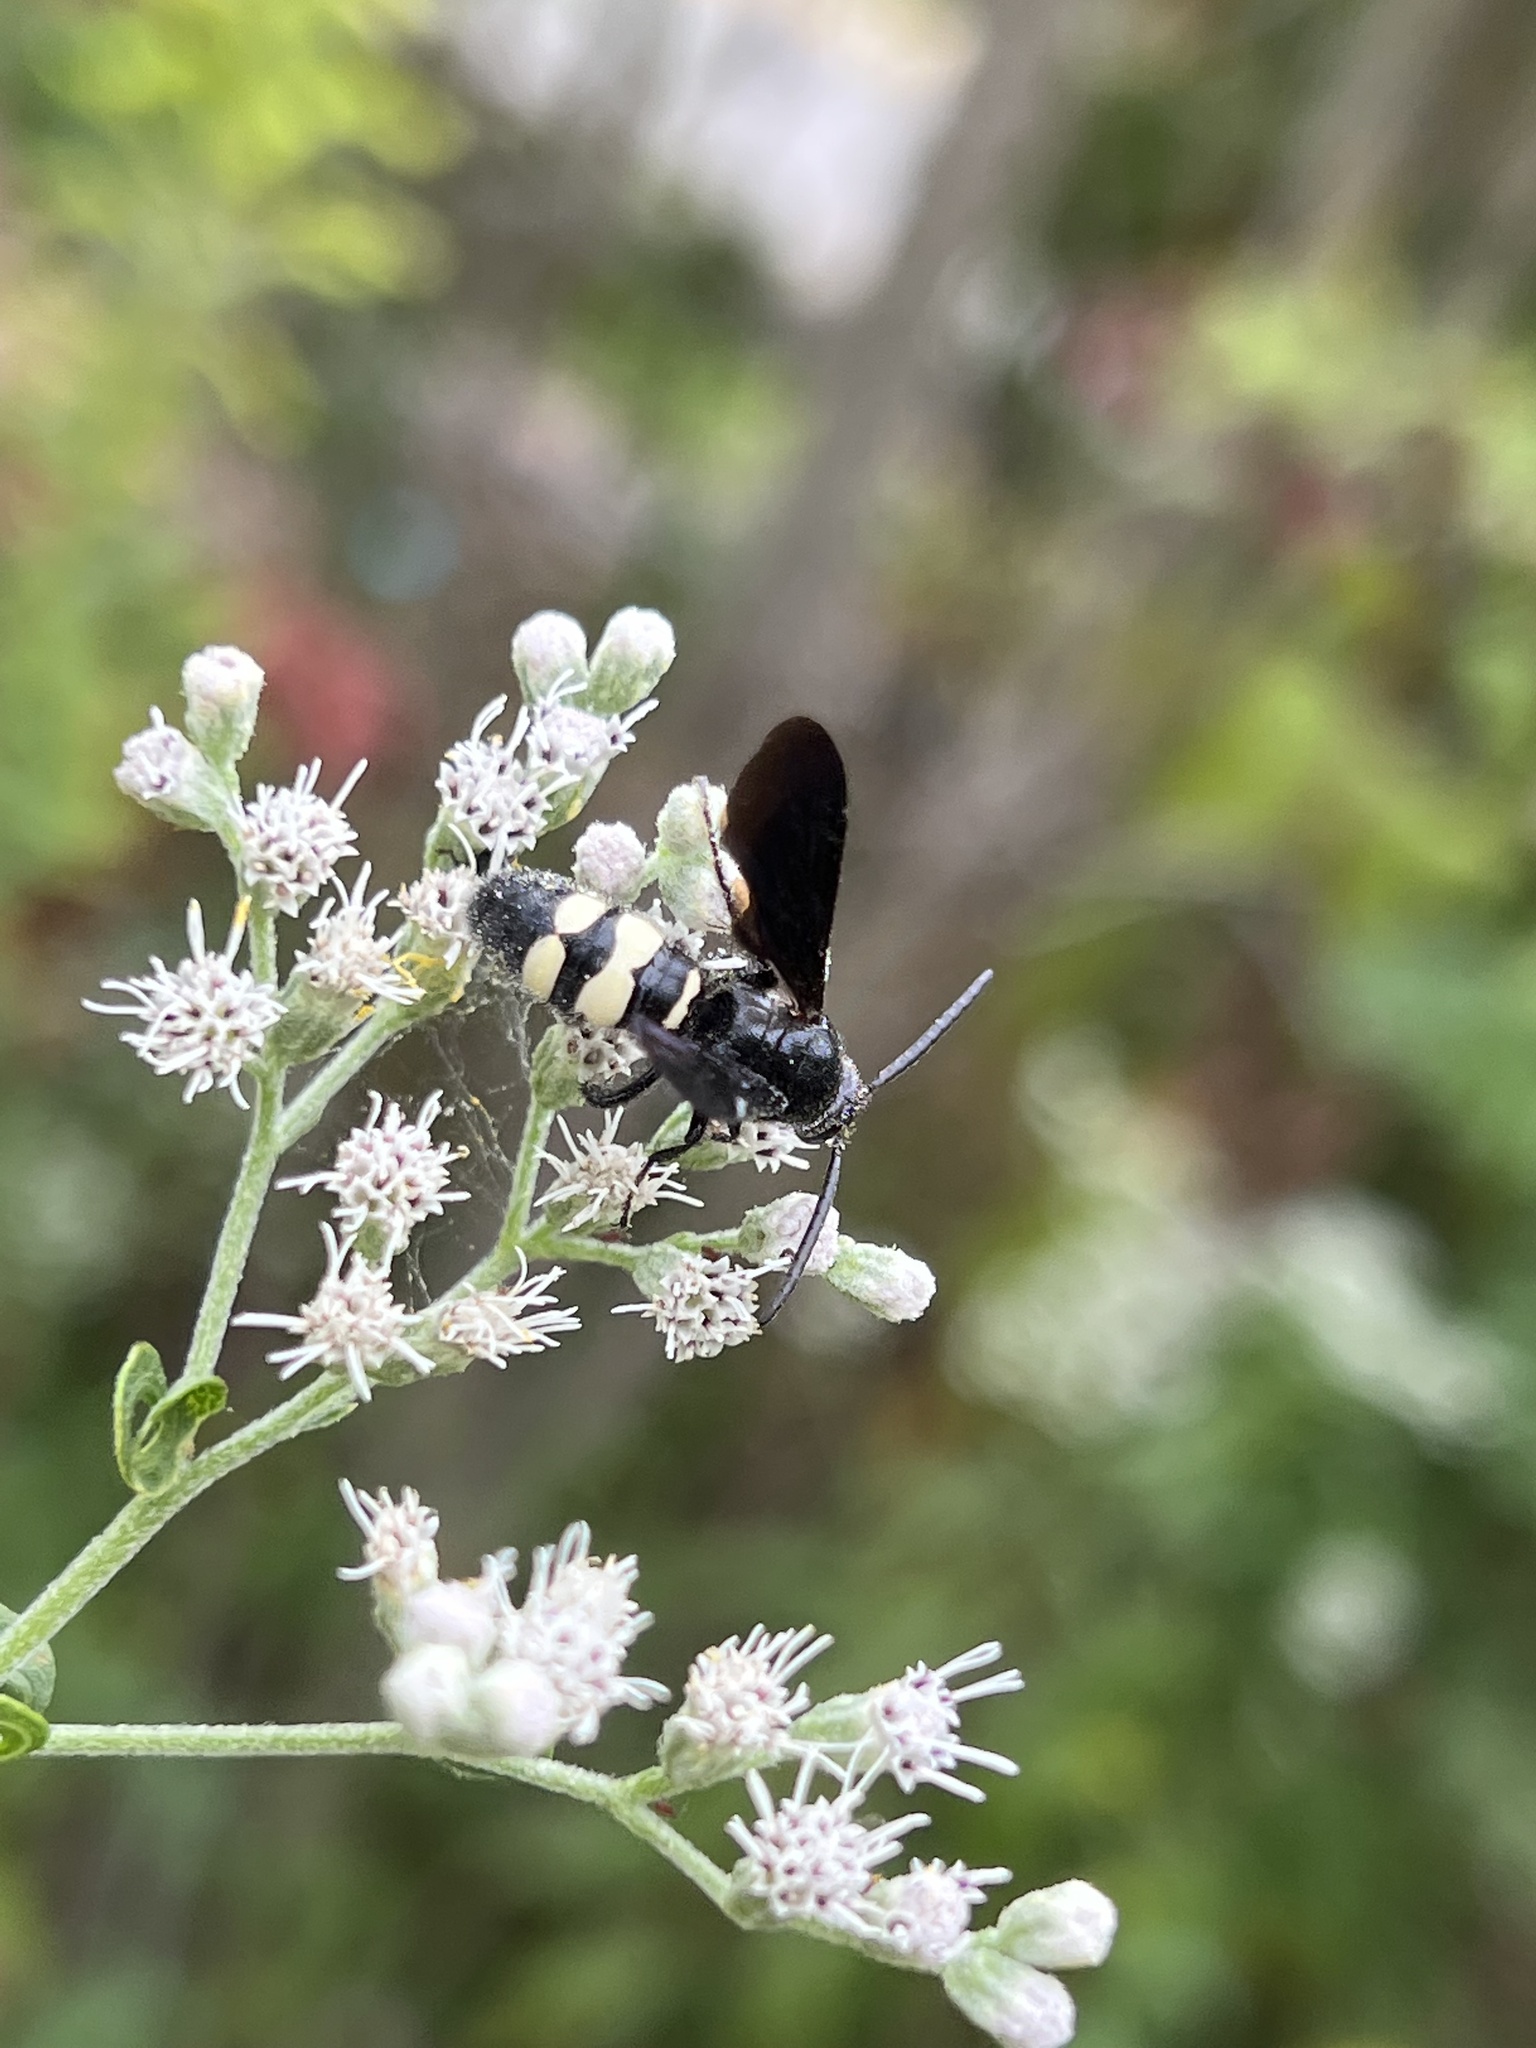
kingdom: Animalia
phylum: Arthropoda
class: Insecta
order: Hymenoptera
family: Scoliidae
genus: Scolia
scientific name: Scolia bicincta
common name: Double-banded scoliid wasp
